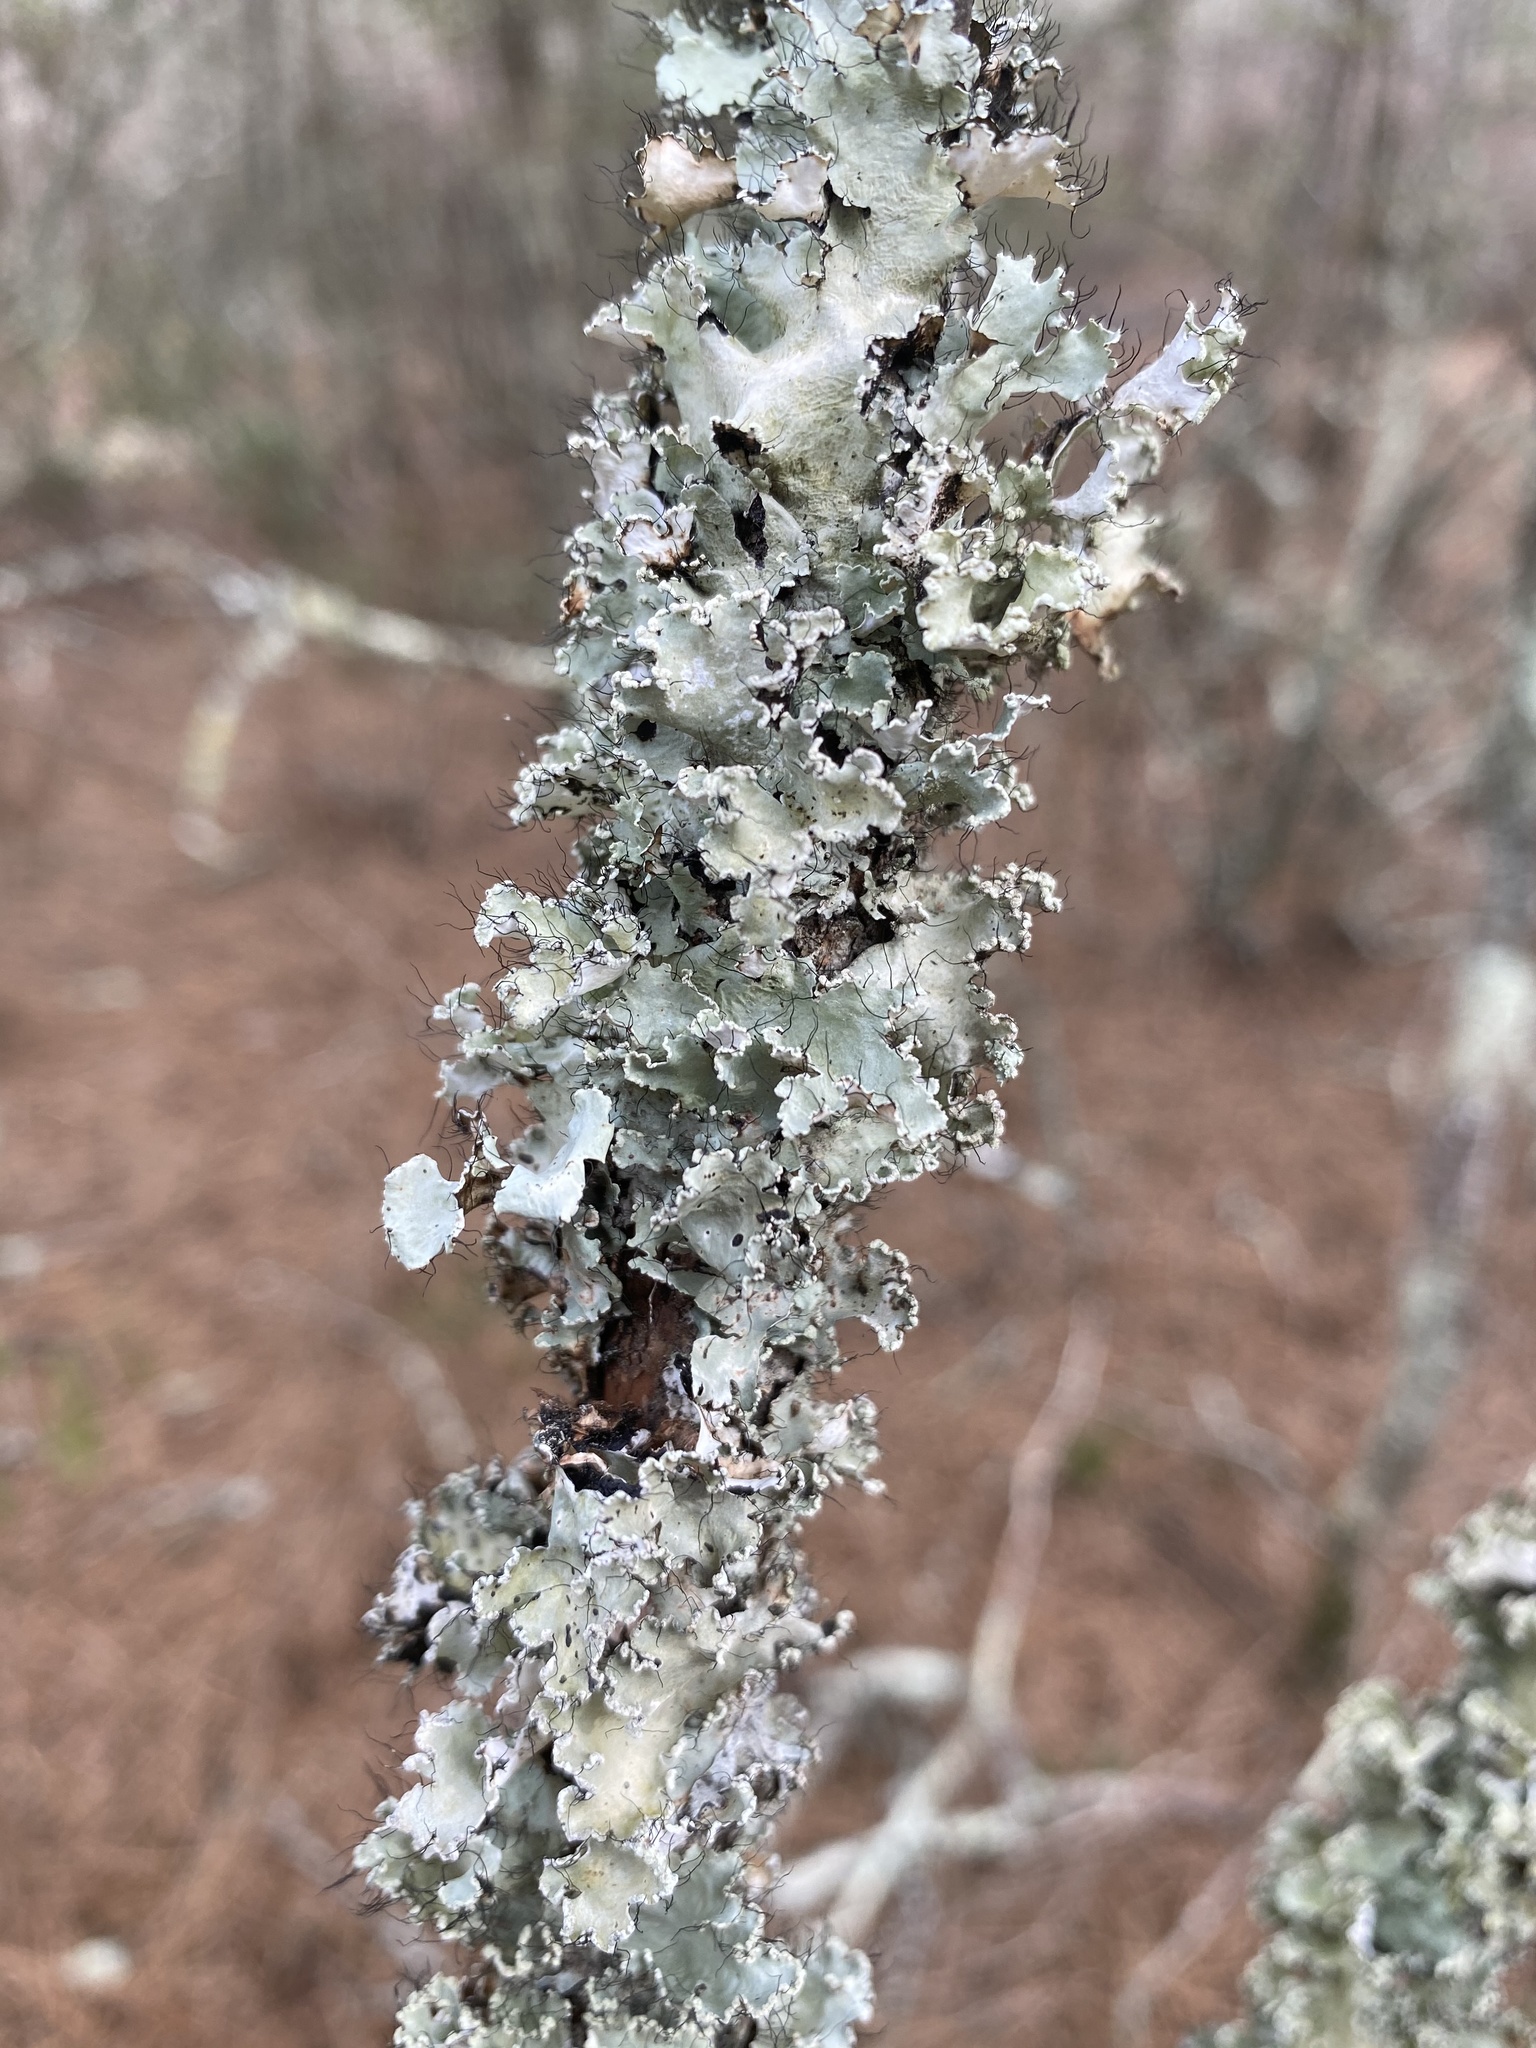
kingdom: Fungi
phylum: Ascomycota
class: Lecanoromycetes
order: Lecanorales
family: Parmeliaceae
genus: Parmotrema
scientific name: Parmotrema
